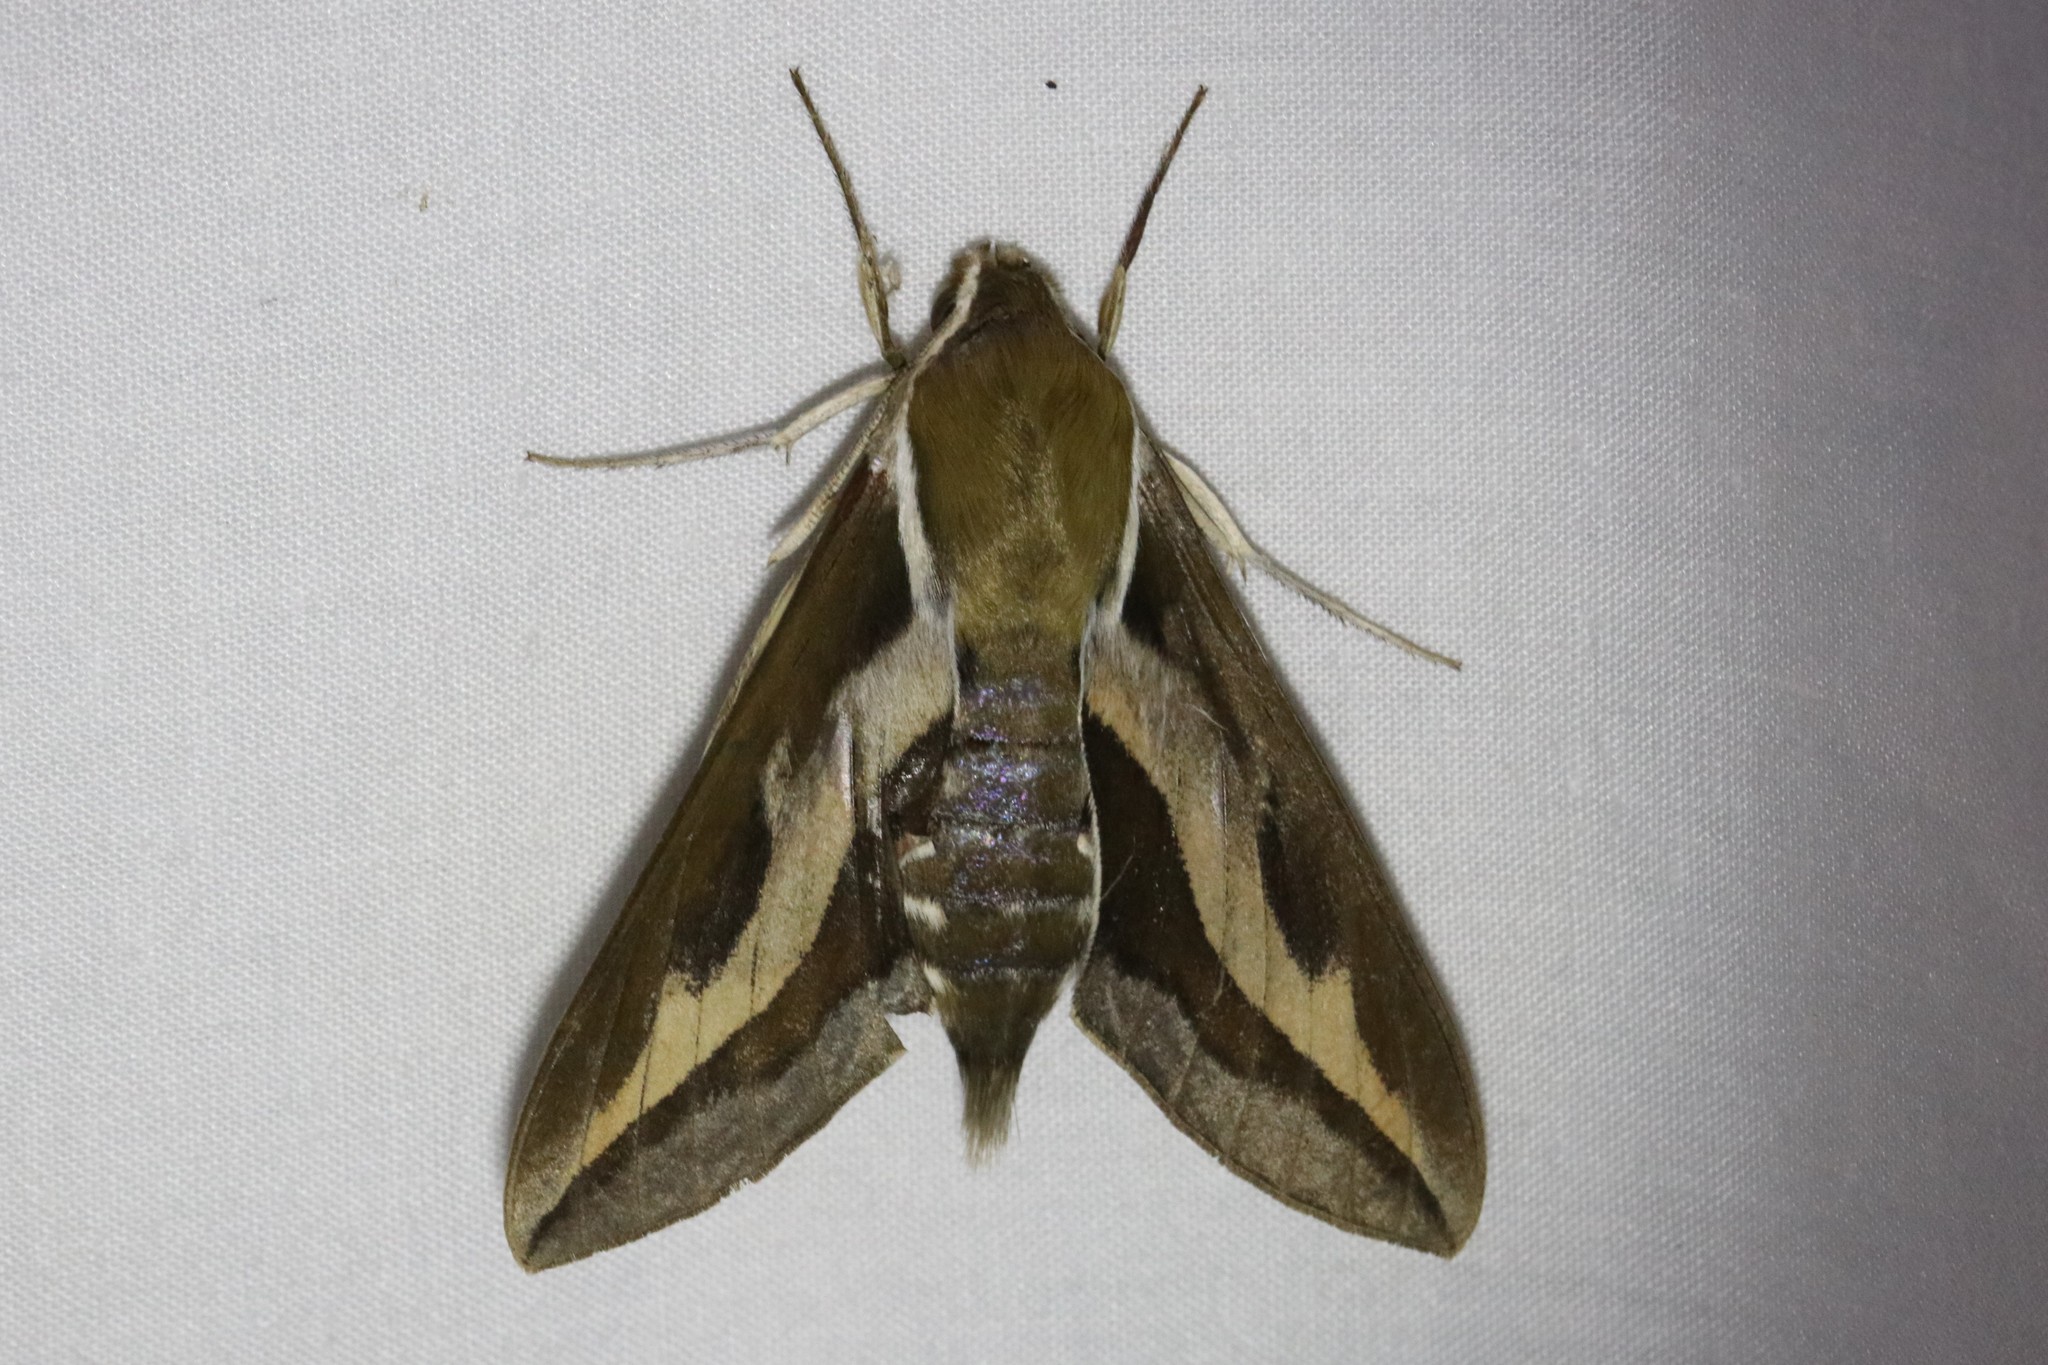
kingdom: Animalia
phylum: Arthropoda
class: Insecta
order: Lepidoptera
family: Sphingidae
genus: Hyles
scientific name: Hyles gallii
